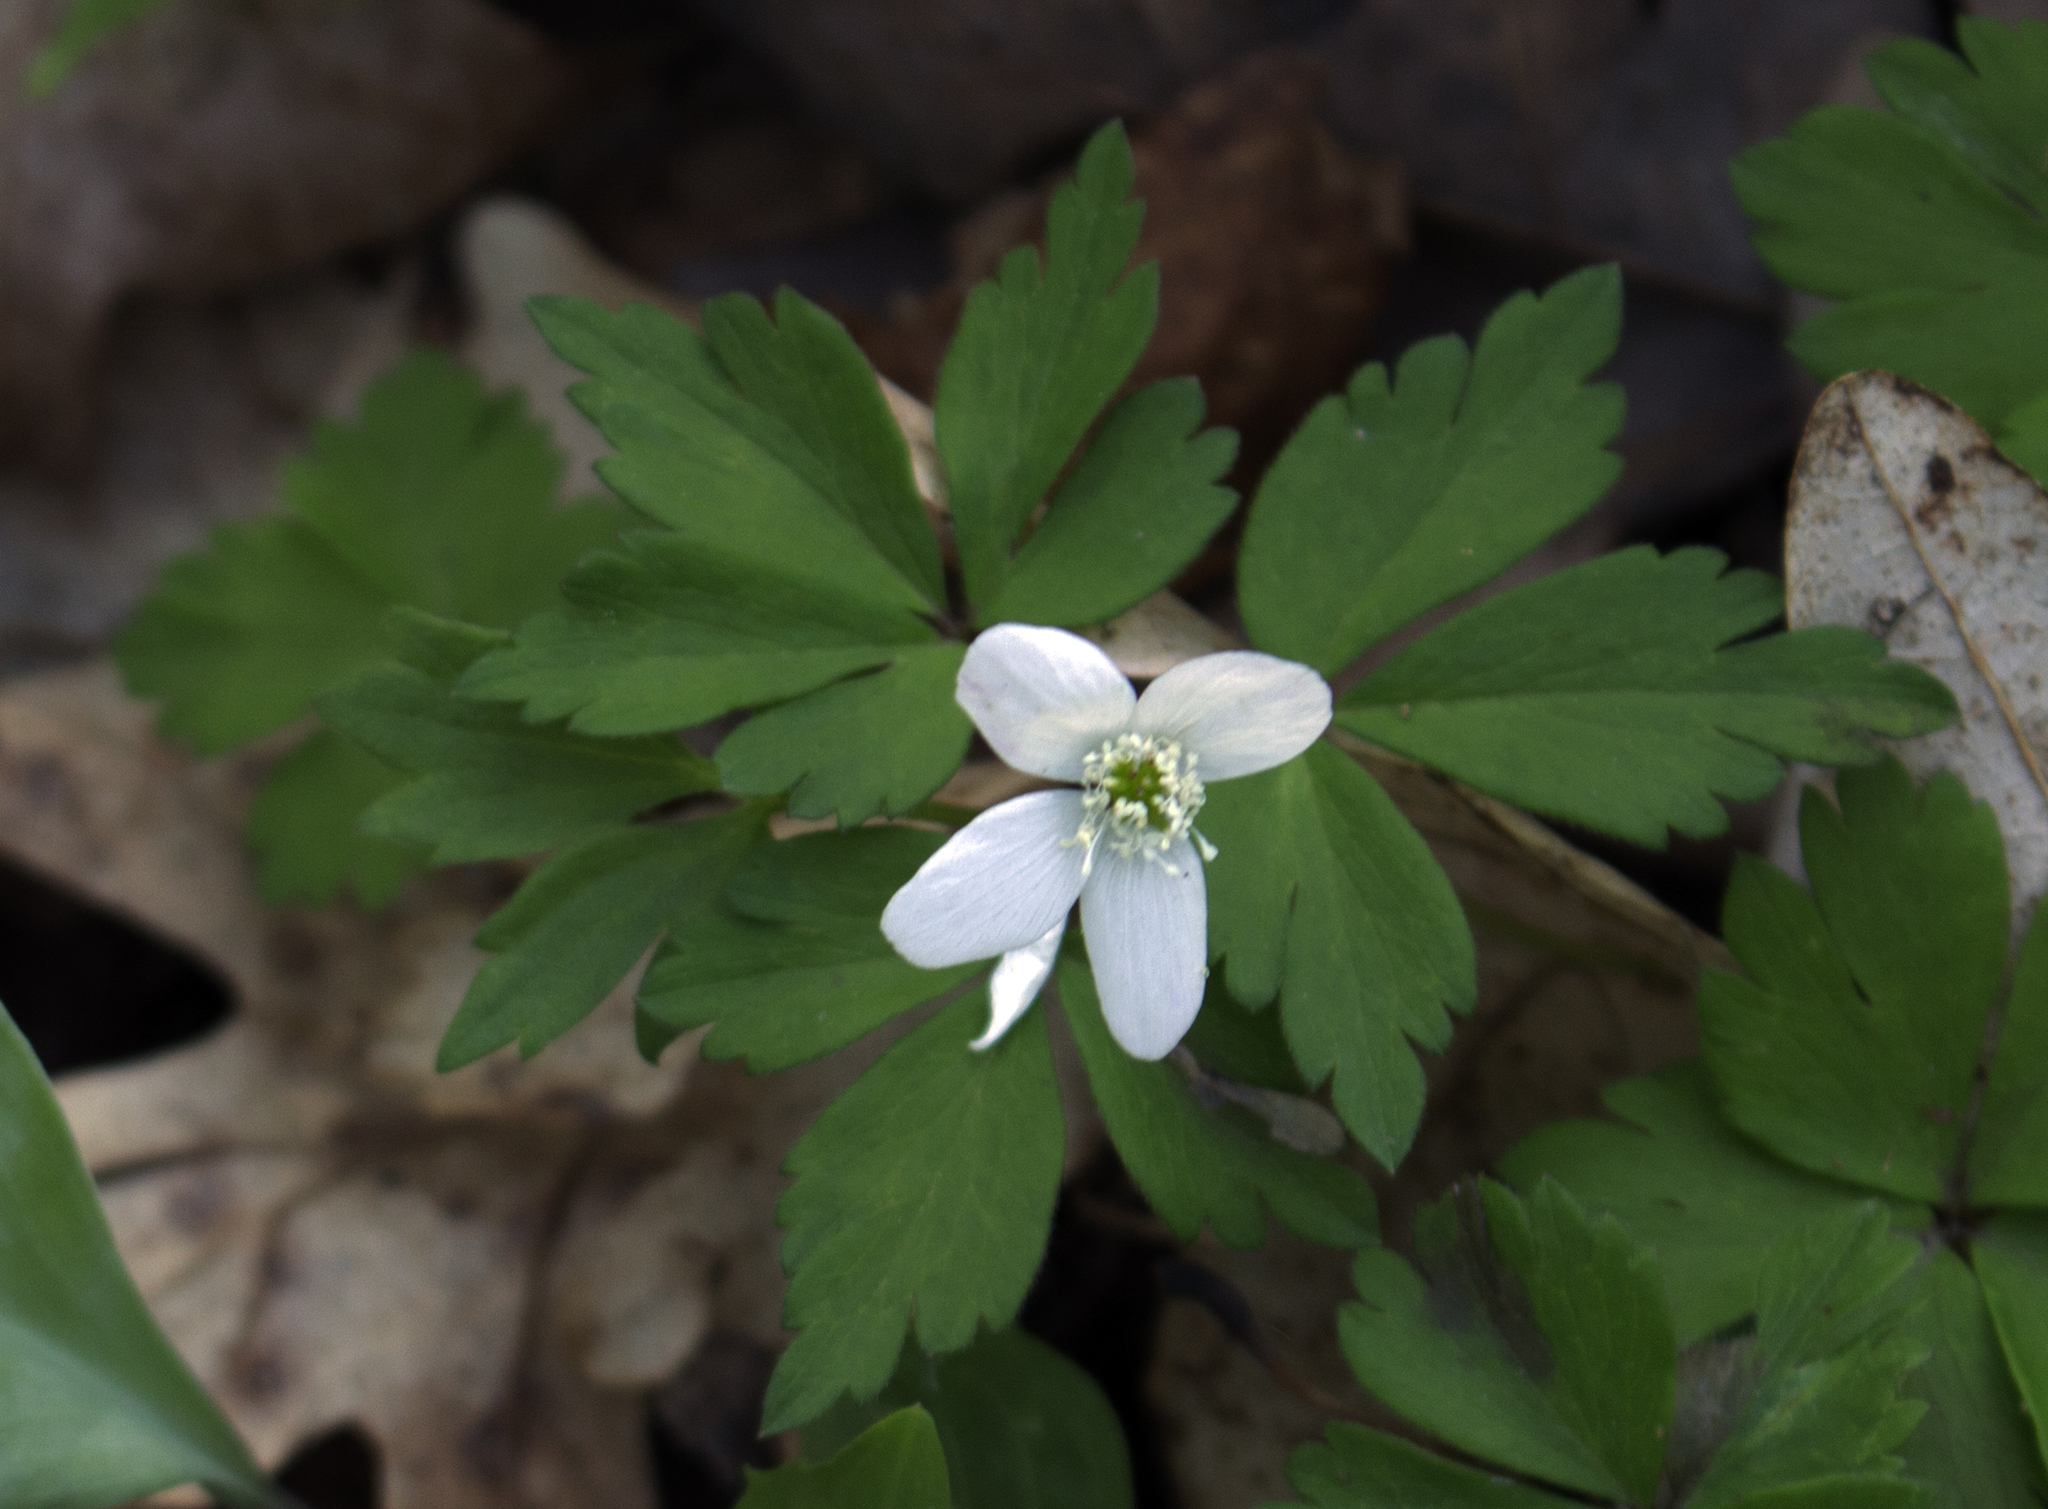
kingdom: Plantae
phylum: Tracheophyta
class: Magnoliopsida
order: Ranunculales
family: Ranunculaceae
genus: Anemone
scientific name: Anemone quinquefolia
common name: Wood anemone
